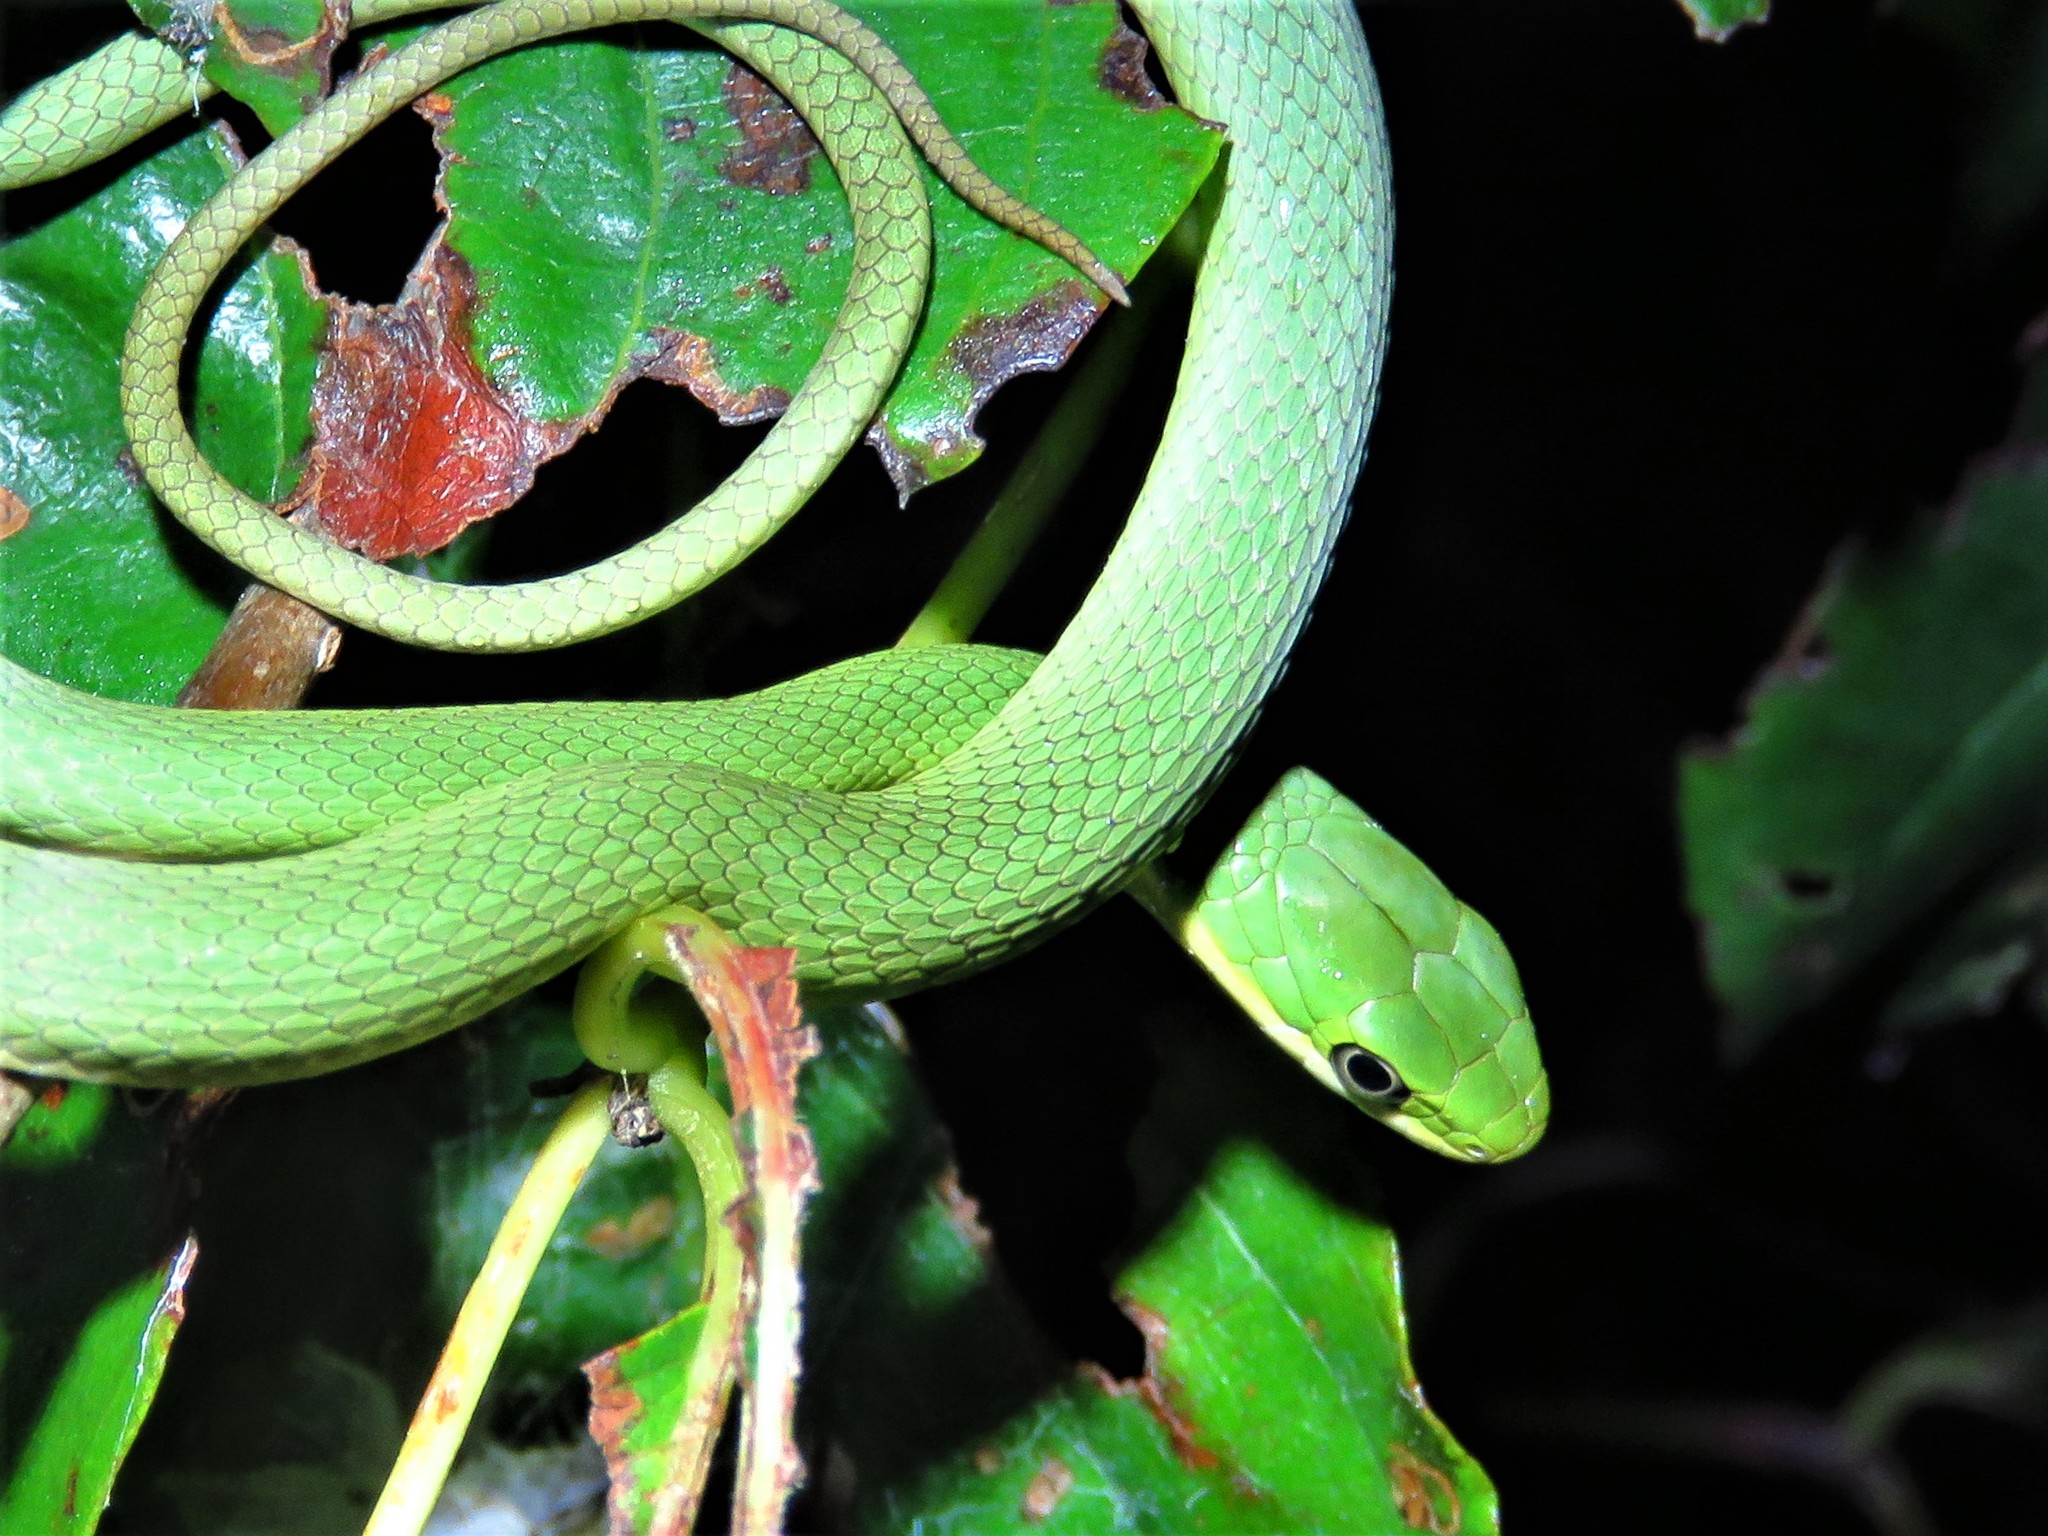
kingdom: Animalia
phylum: Chordata
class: Squamata
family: Colubridae
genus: Opheodrys
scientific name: Opheodrys aestivus
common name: Rough greensnake
